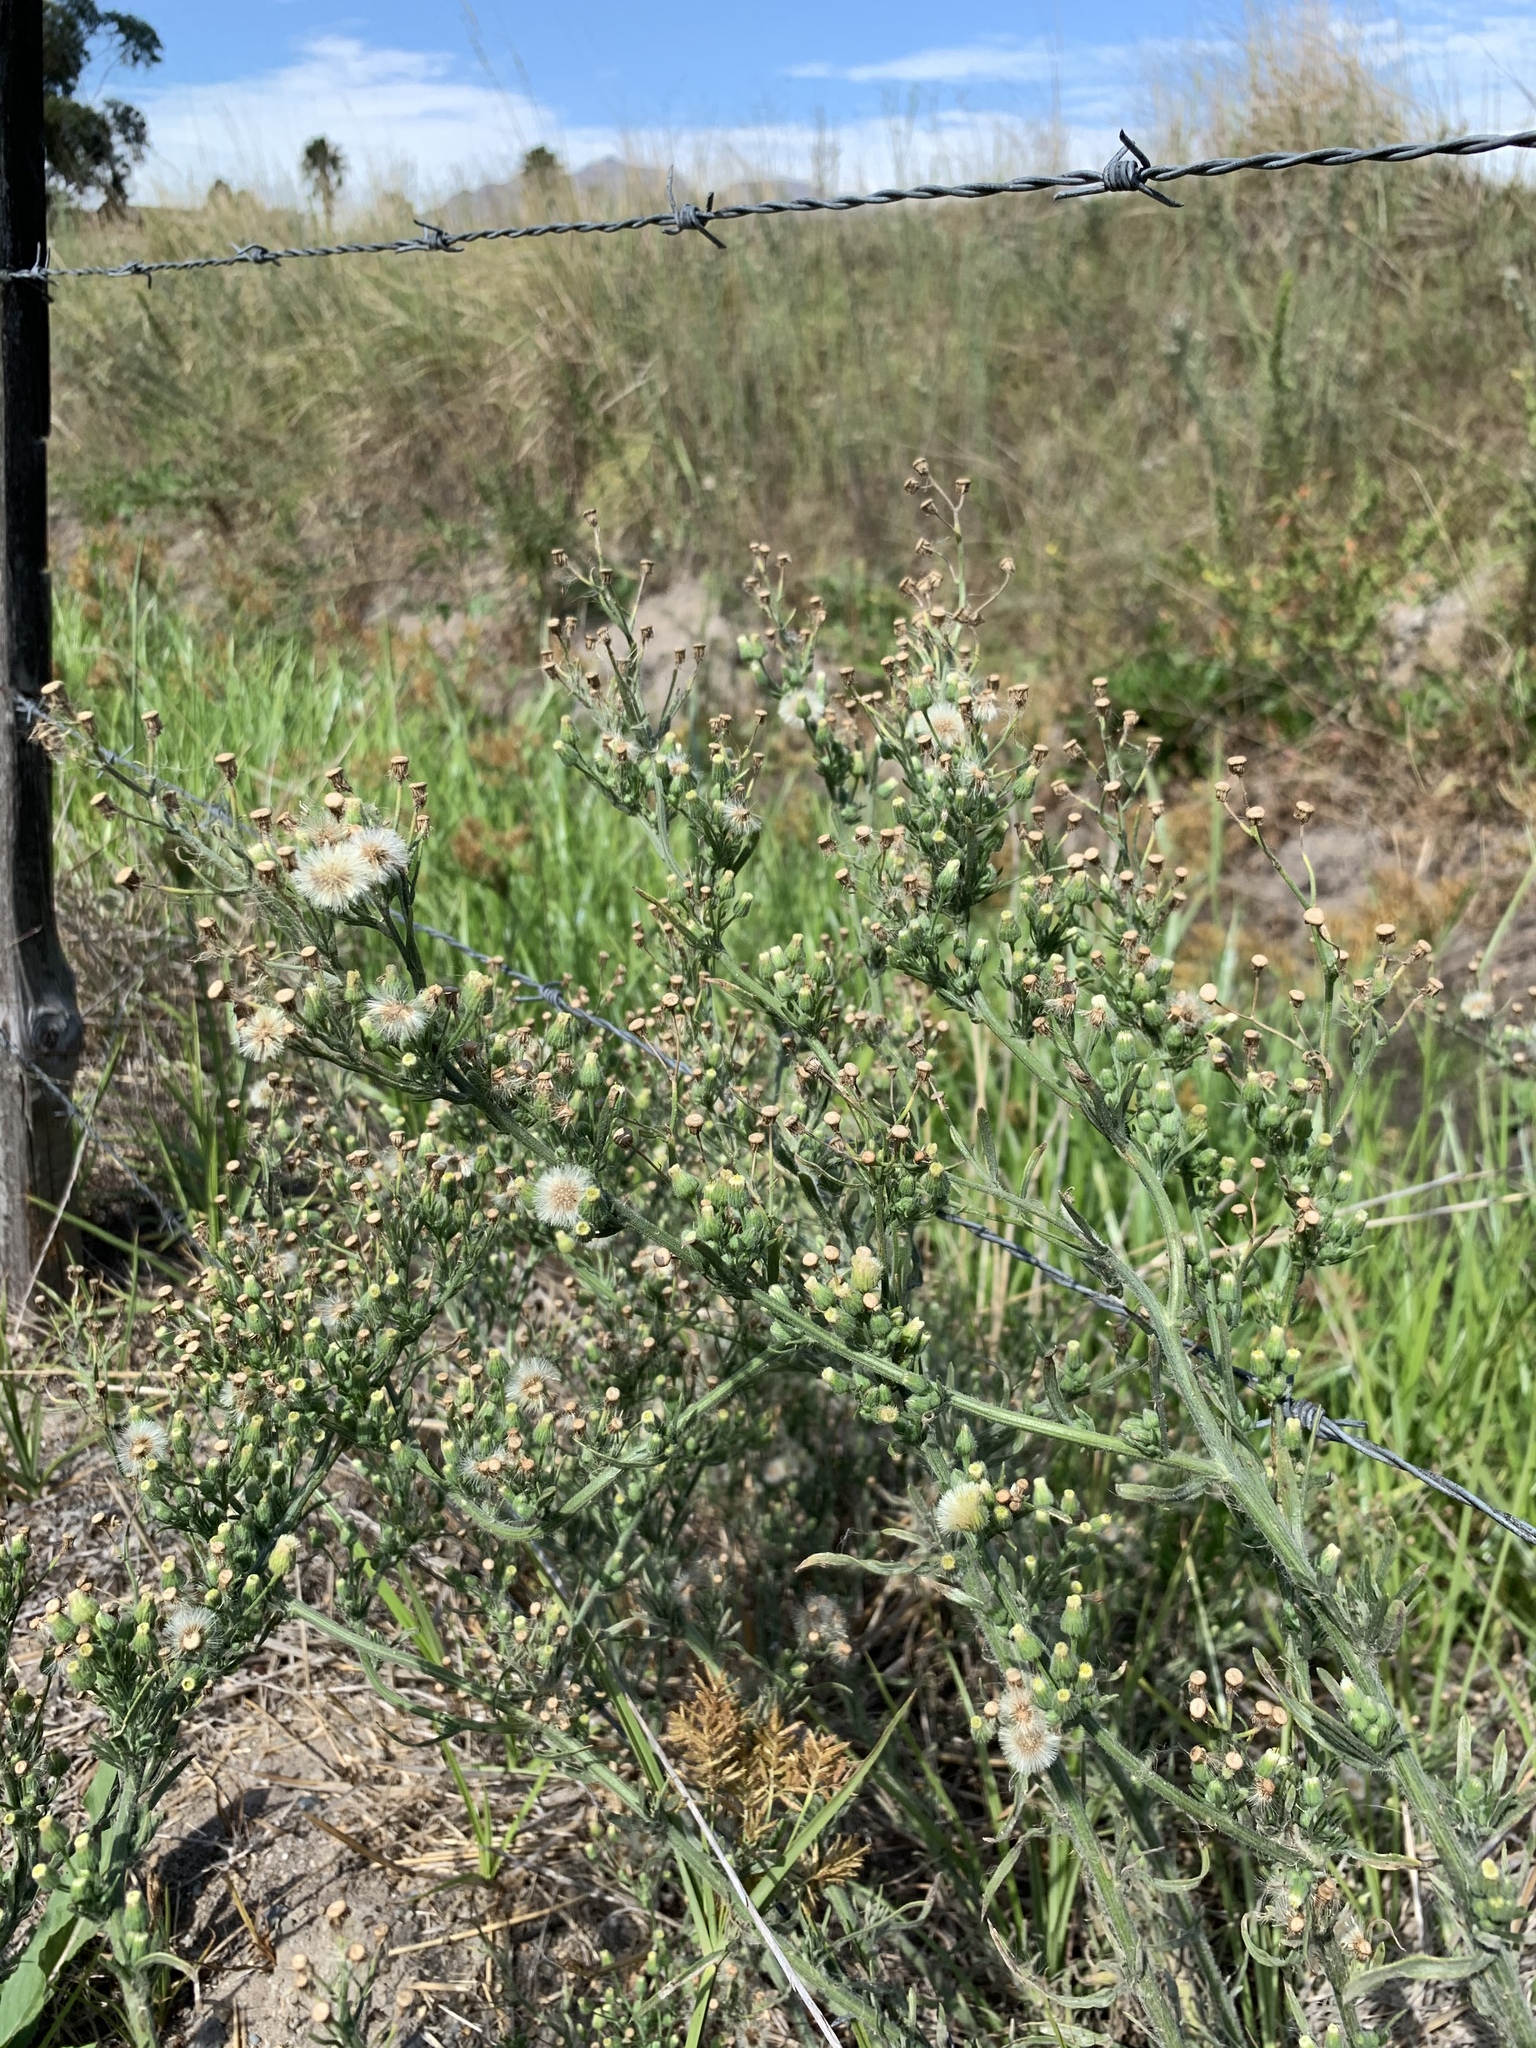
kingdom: Plantae
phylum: Tracheophyta
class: Magnoliopsida
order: Asterales
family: Asteraceae
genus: Erigeron
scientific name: Erigeron bonariensis
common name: Argentine fleabane
